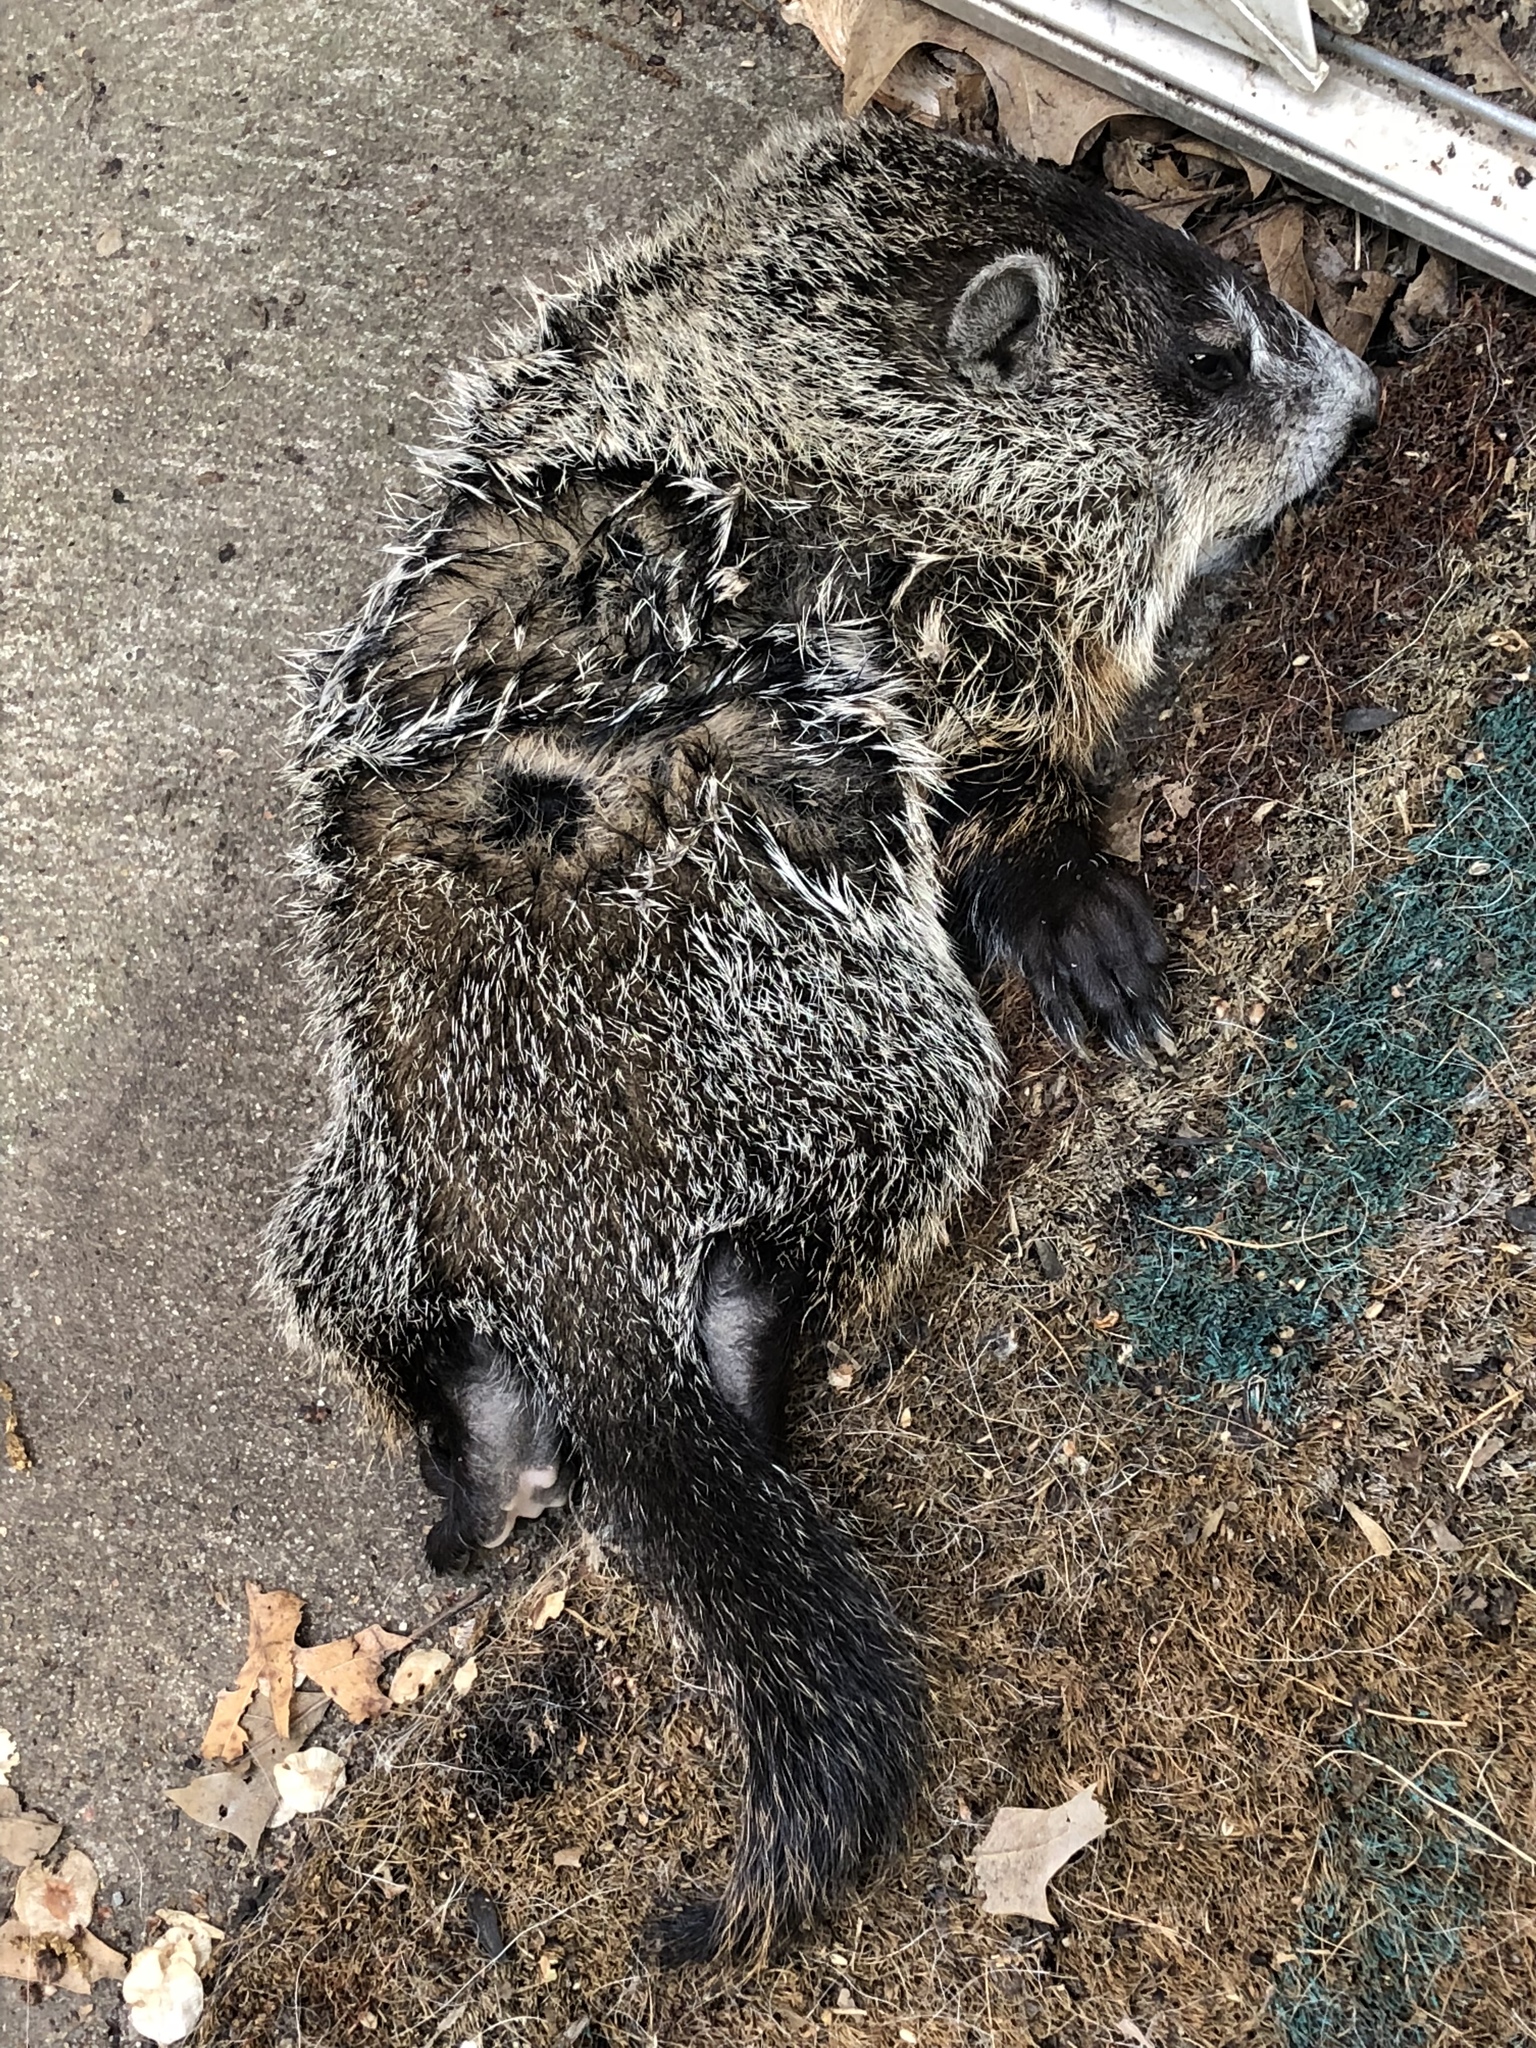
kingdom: Animalia
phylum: Chordata
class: Mammalia
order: Rodentia
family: Sciuridae
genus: Marmota
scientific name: Marmota monax
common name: Groundhog
